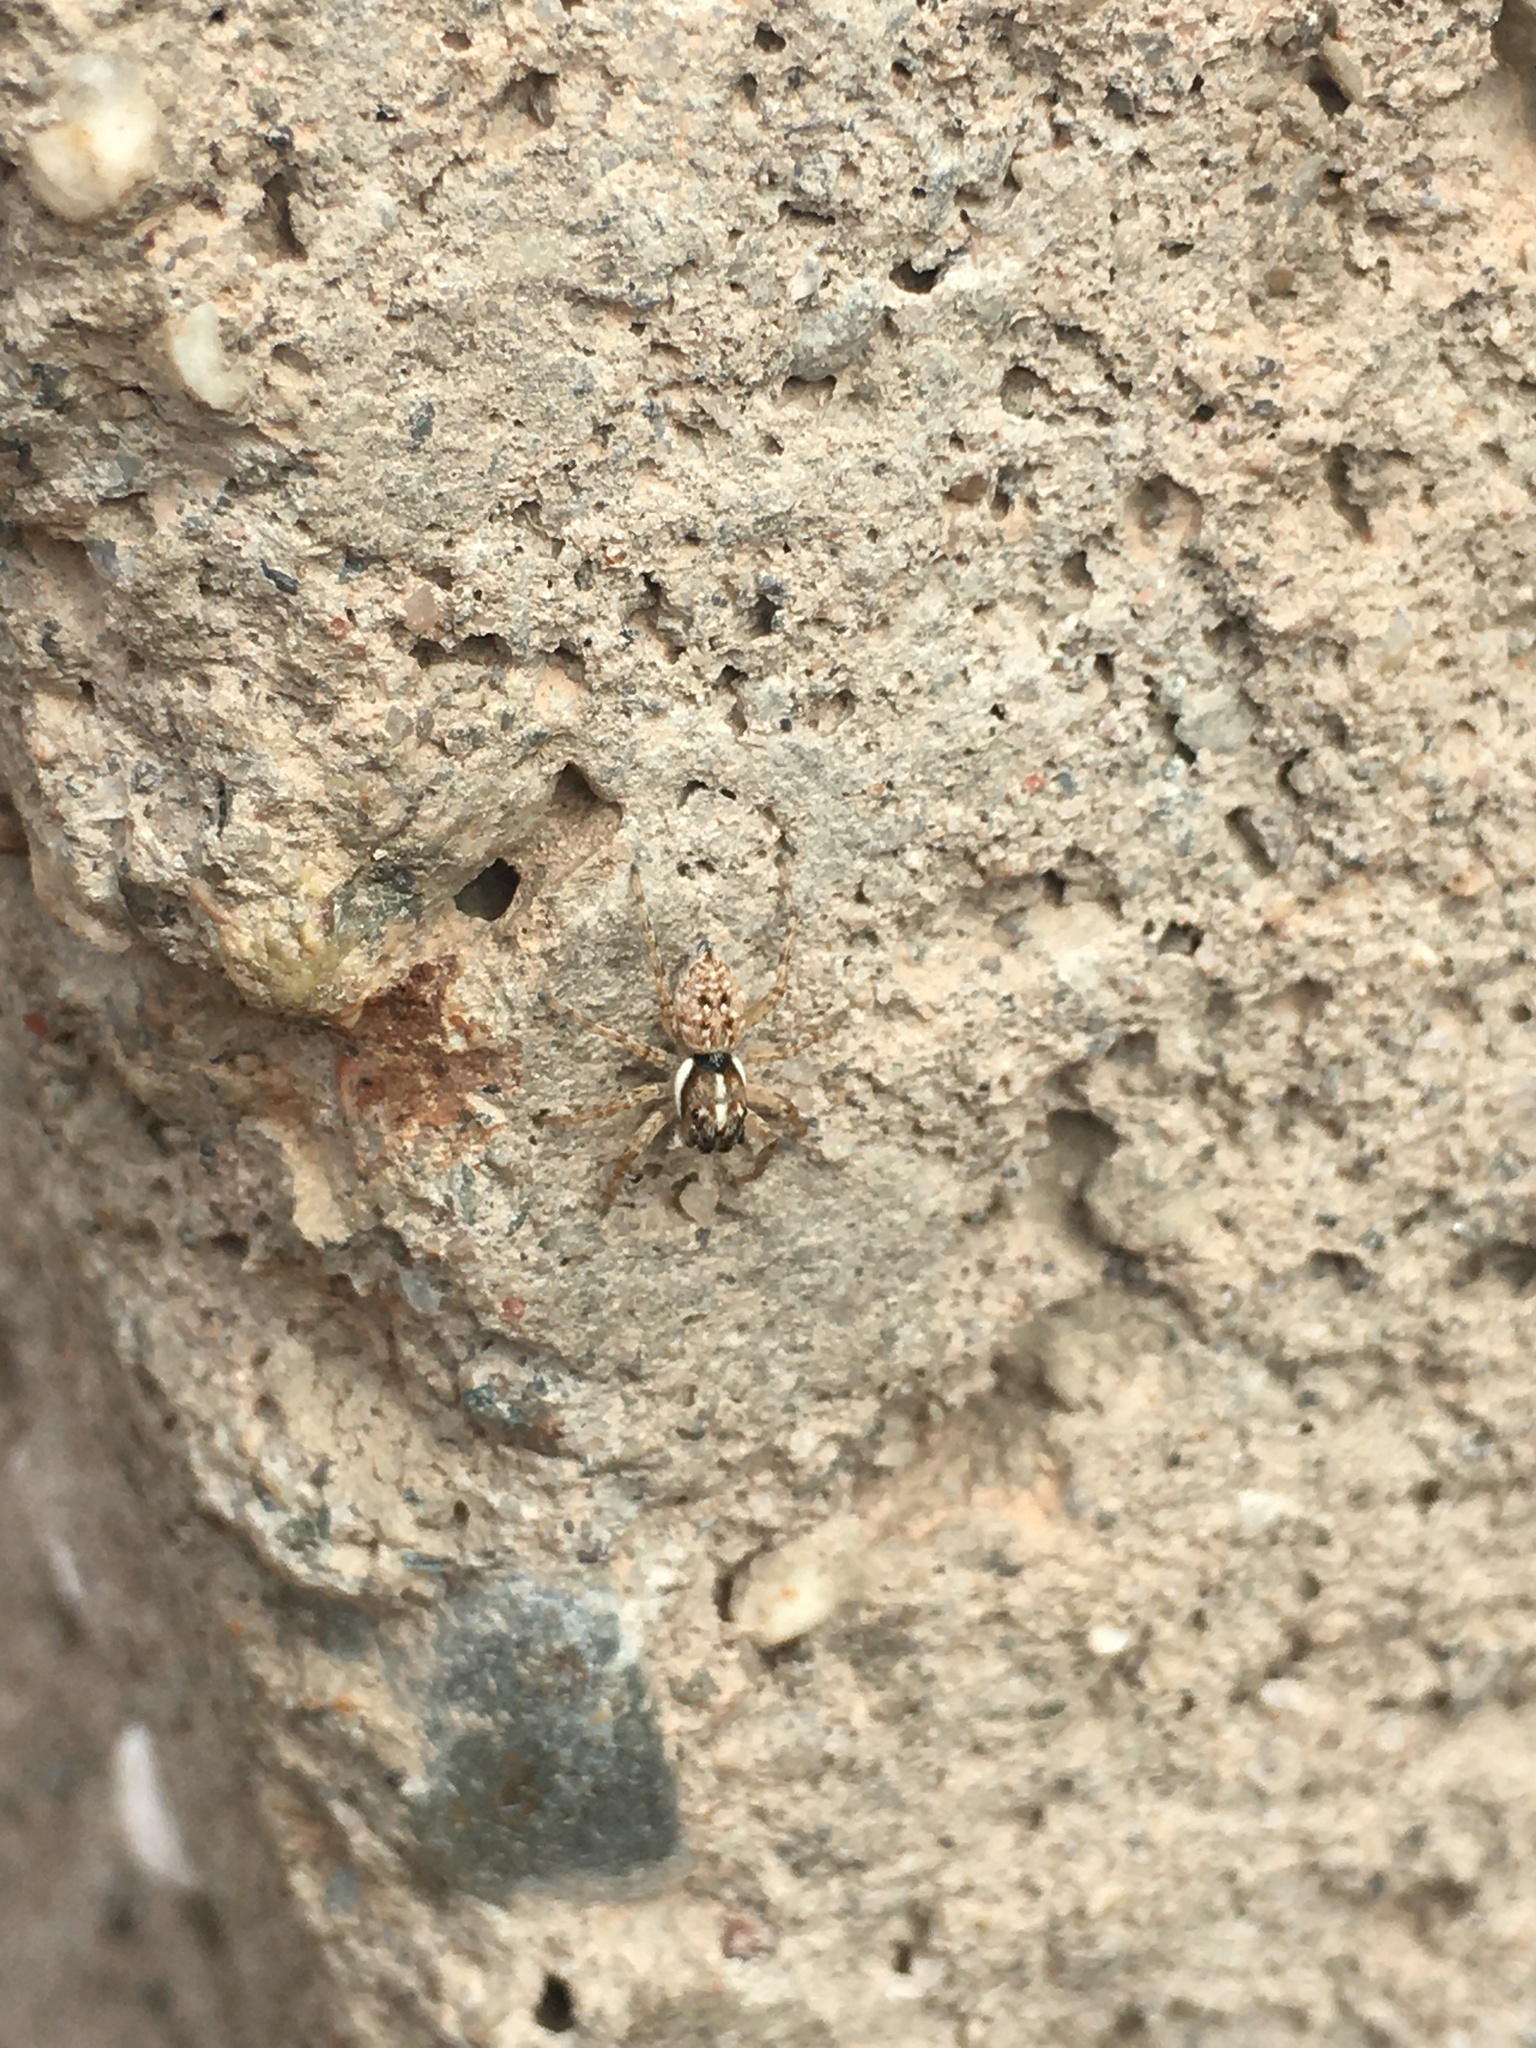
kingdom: Animalia
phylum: Arthropoda
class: Arachnida
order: Araneae
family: Salticidae
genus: Menemerus
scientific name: Menemerus semilimbatus
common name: Jumping spider
